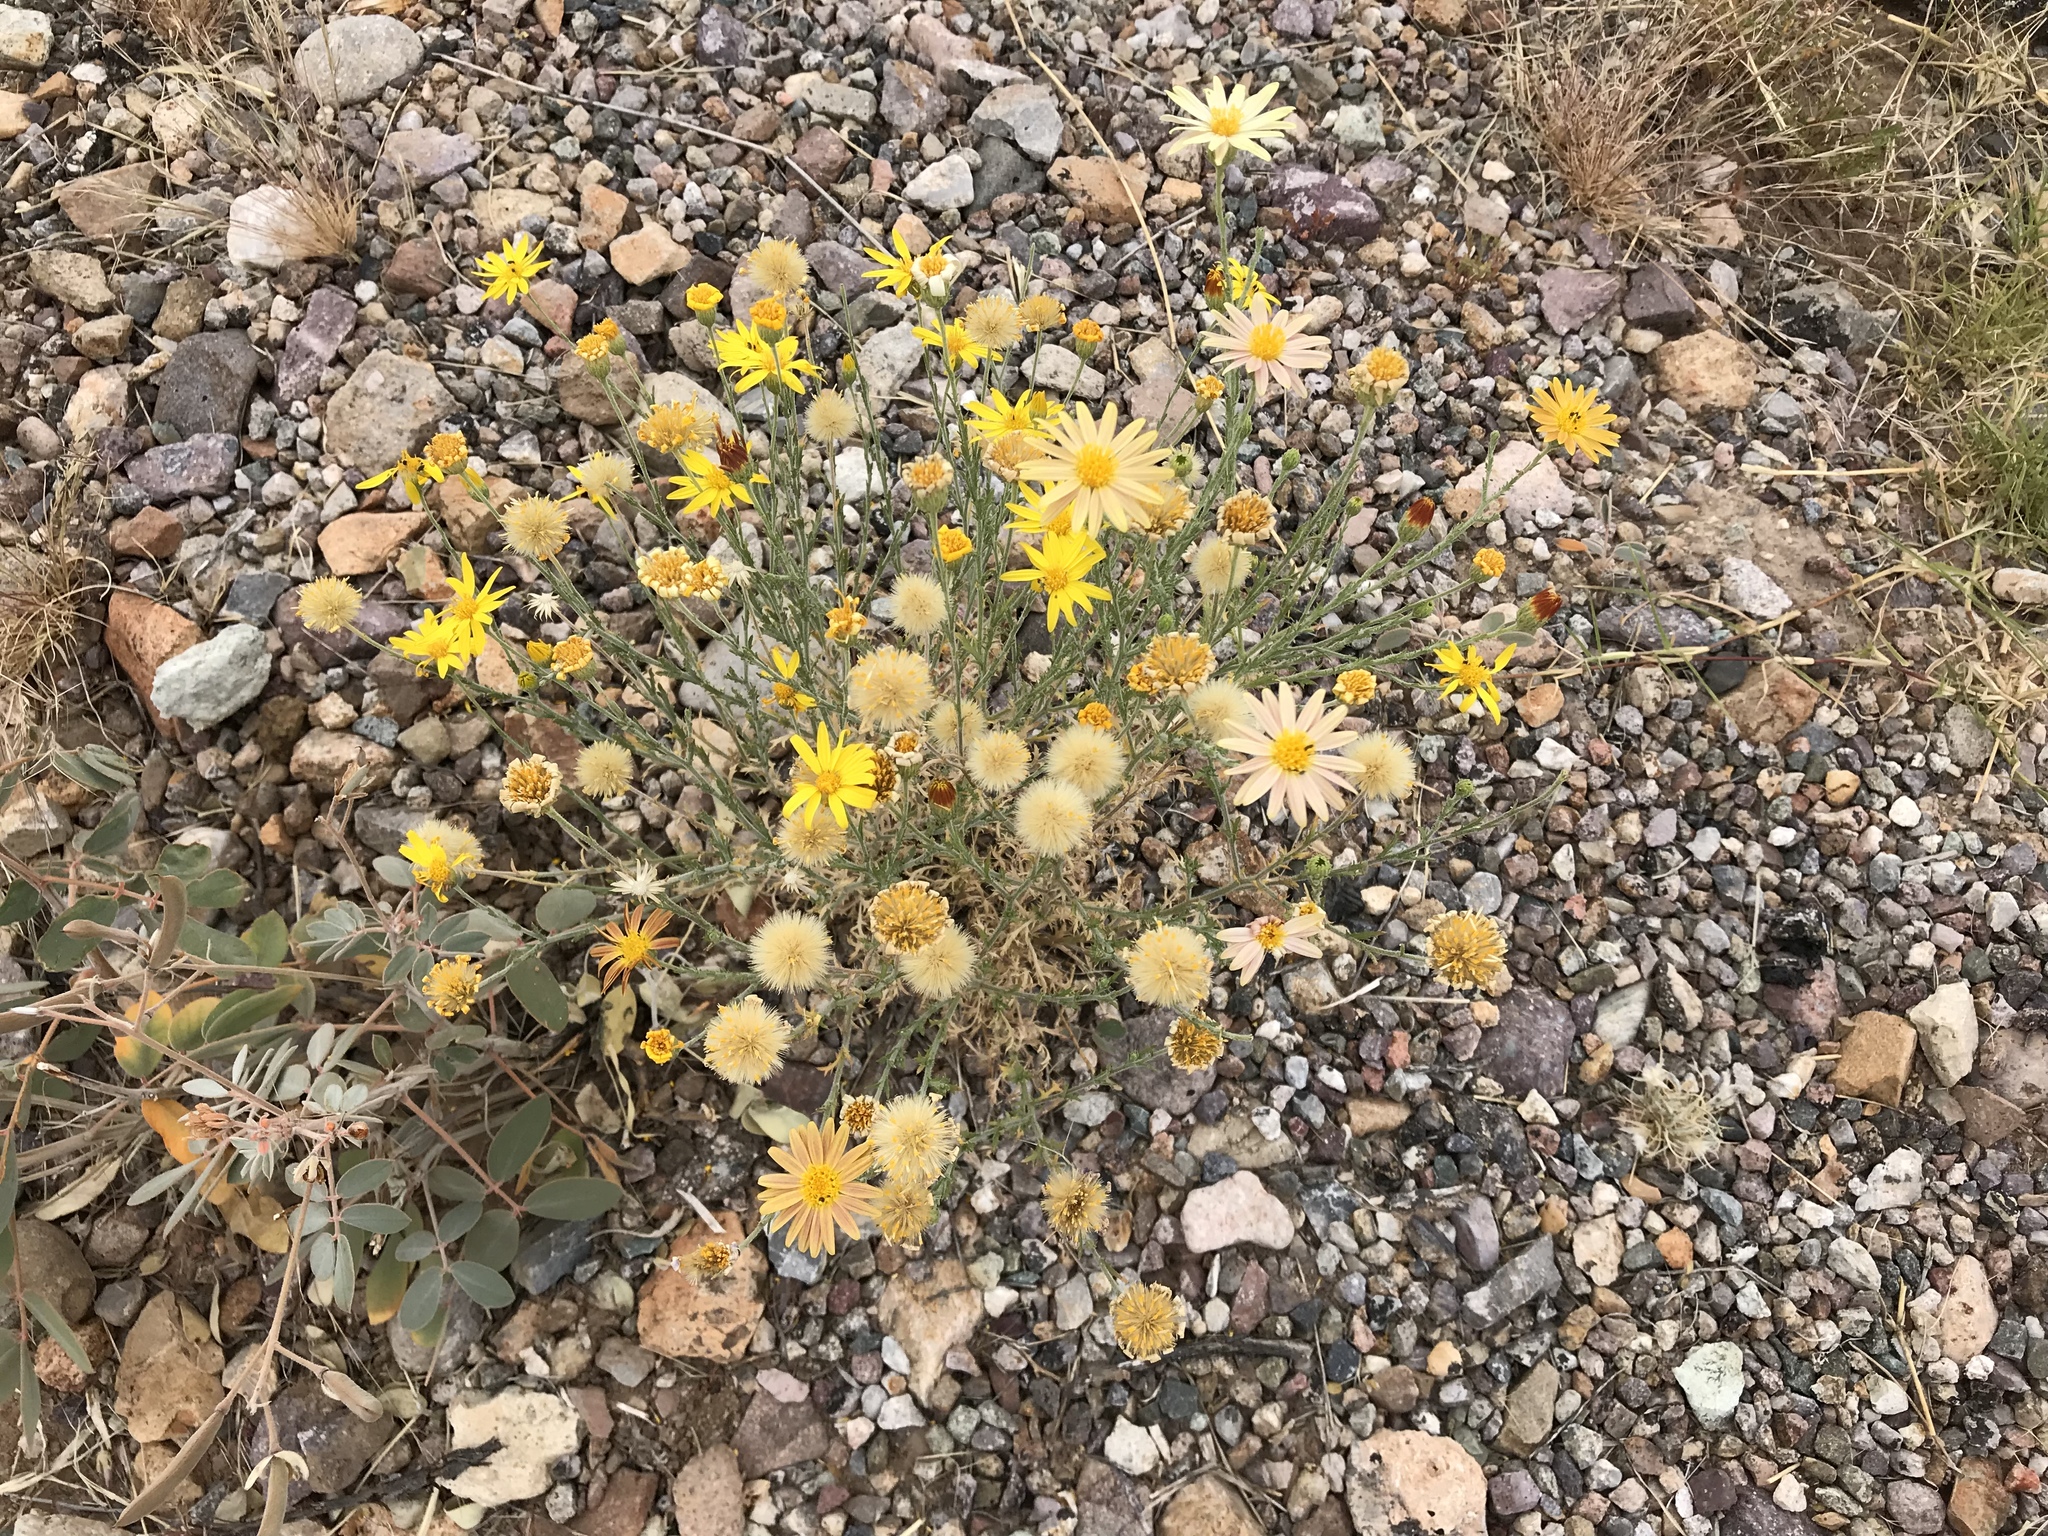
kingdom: Plantae
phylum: Tracheophyta
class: Magnoliopsida
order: Asterales
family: Asteraceae
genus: Xanthisma
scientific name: Xanthisma spinulosum
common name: Spiny goldenweed
